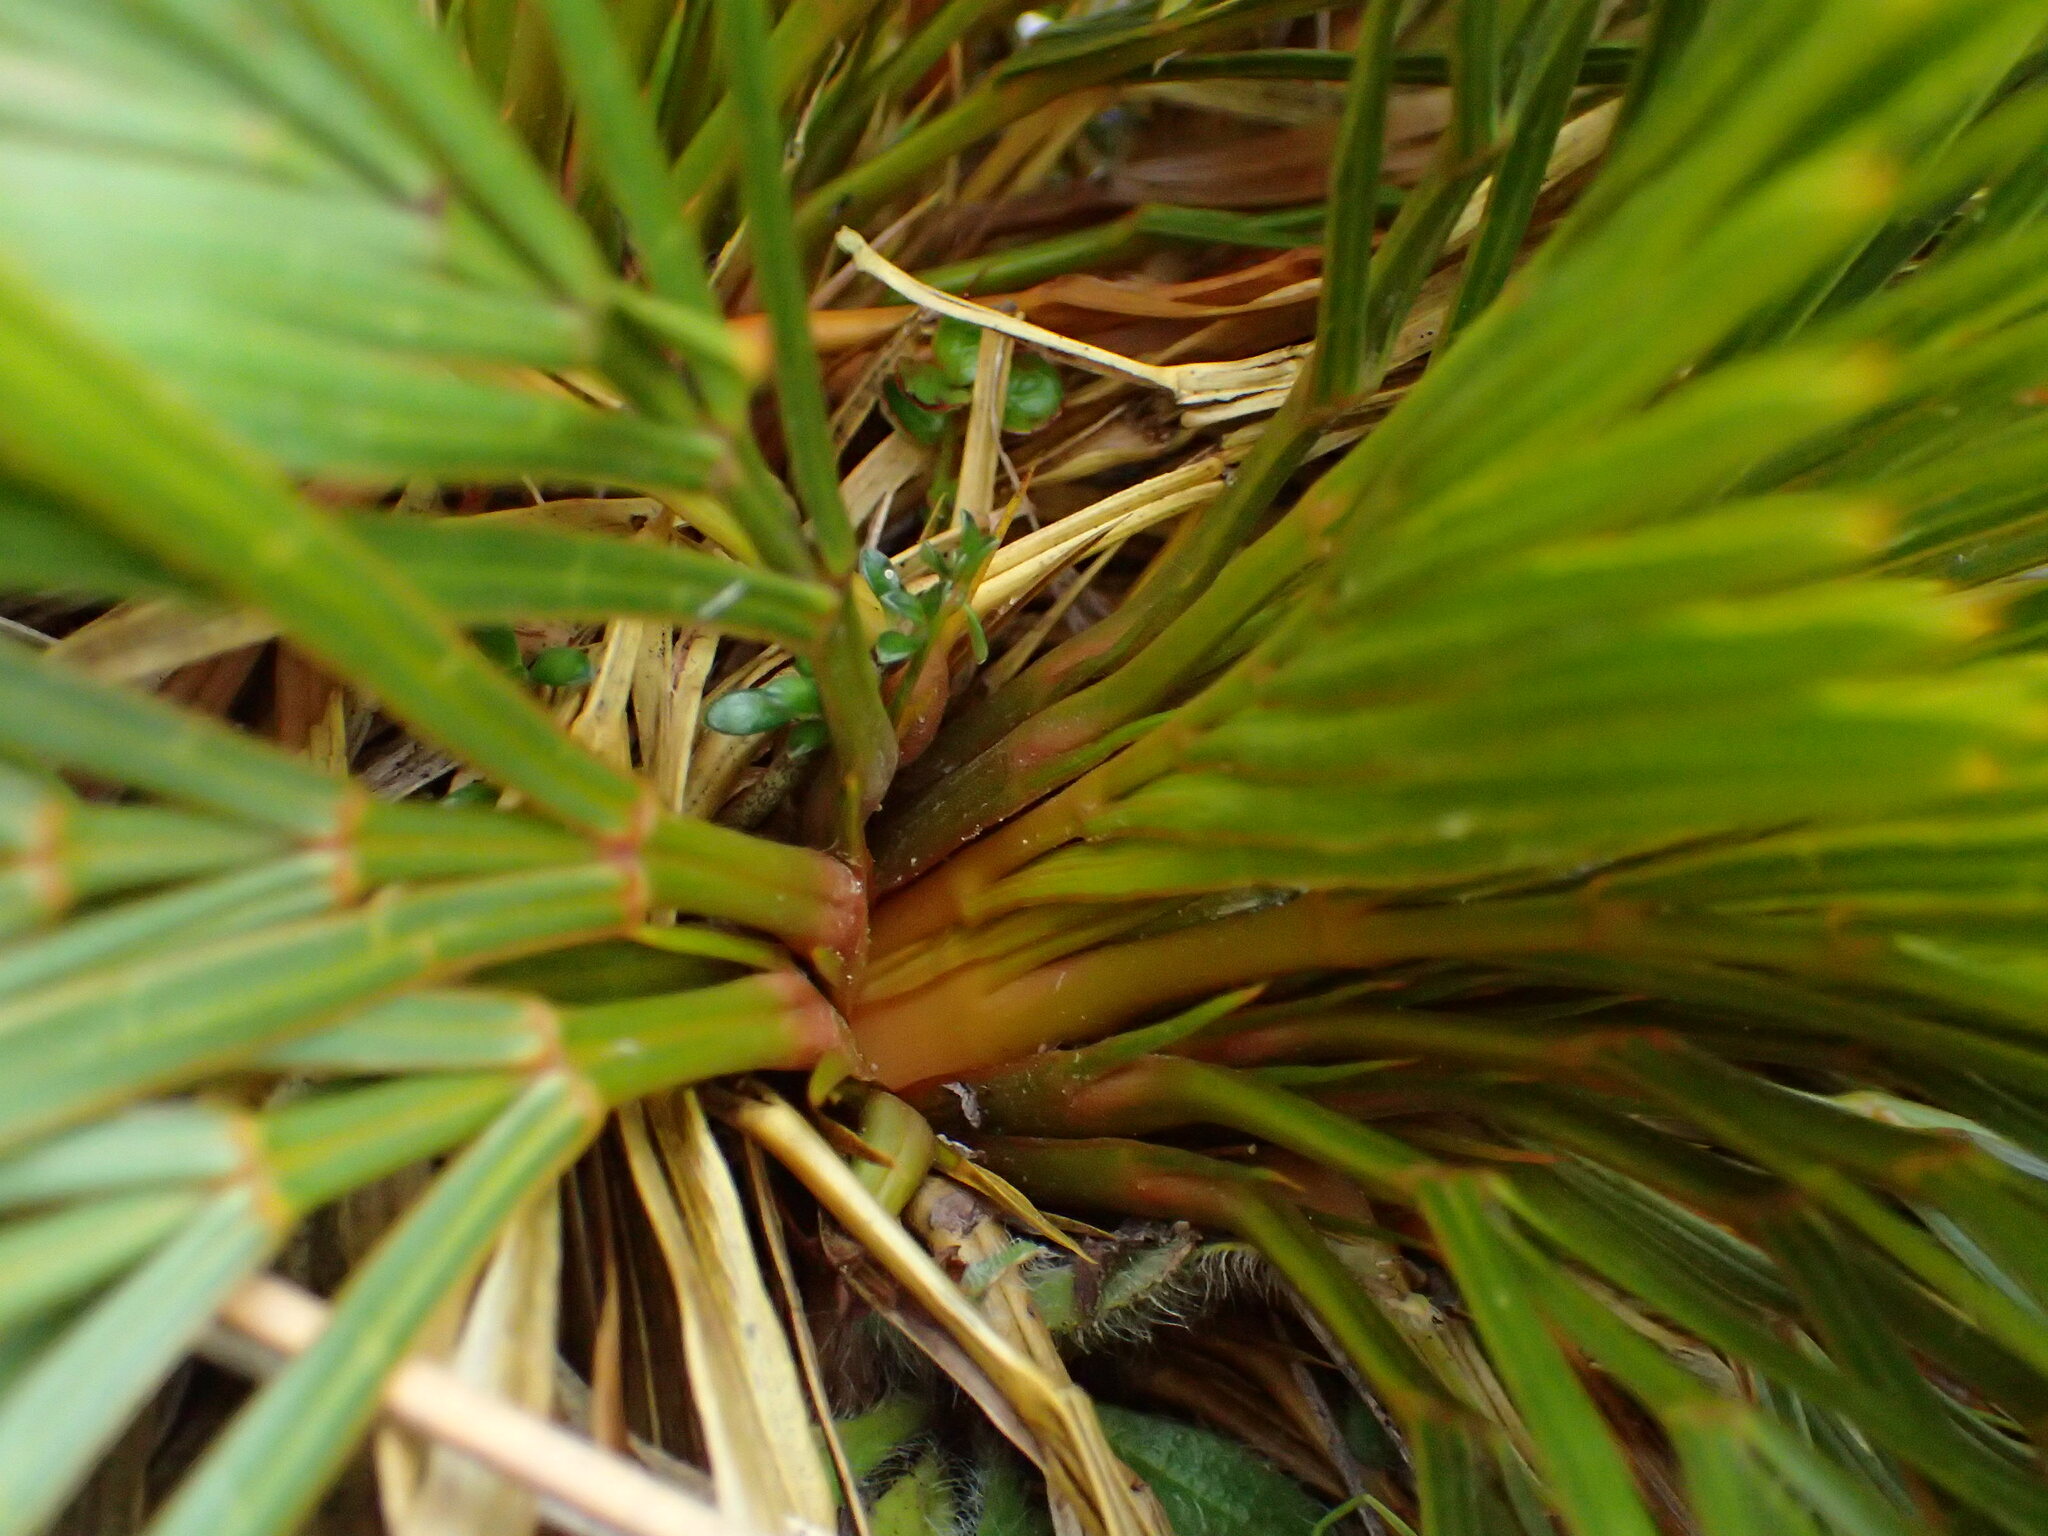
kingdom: Plantae
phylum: Tracheophyta
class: Magnoliopsida
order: Apiales
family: Apiaceae
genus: Aciphylla
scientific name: Aciphylla lecomtei
